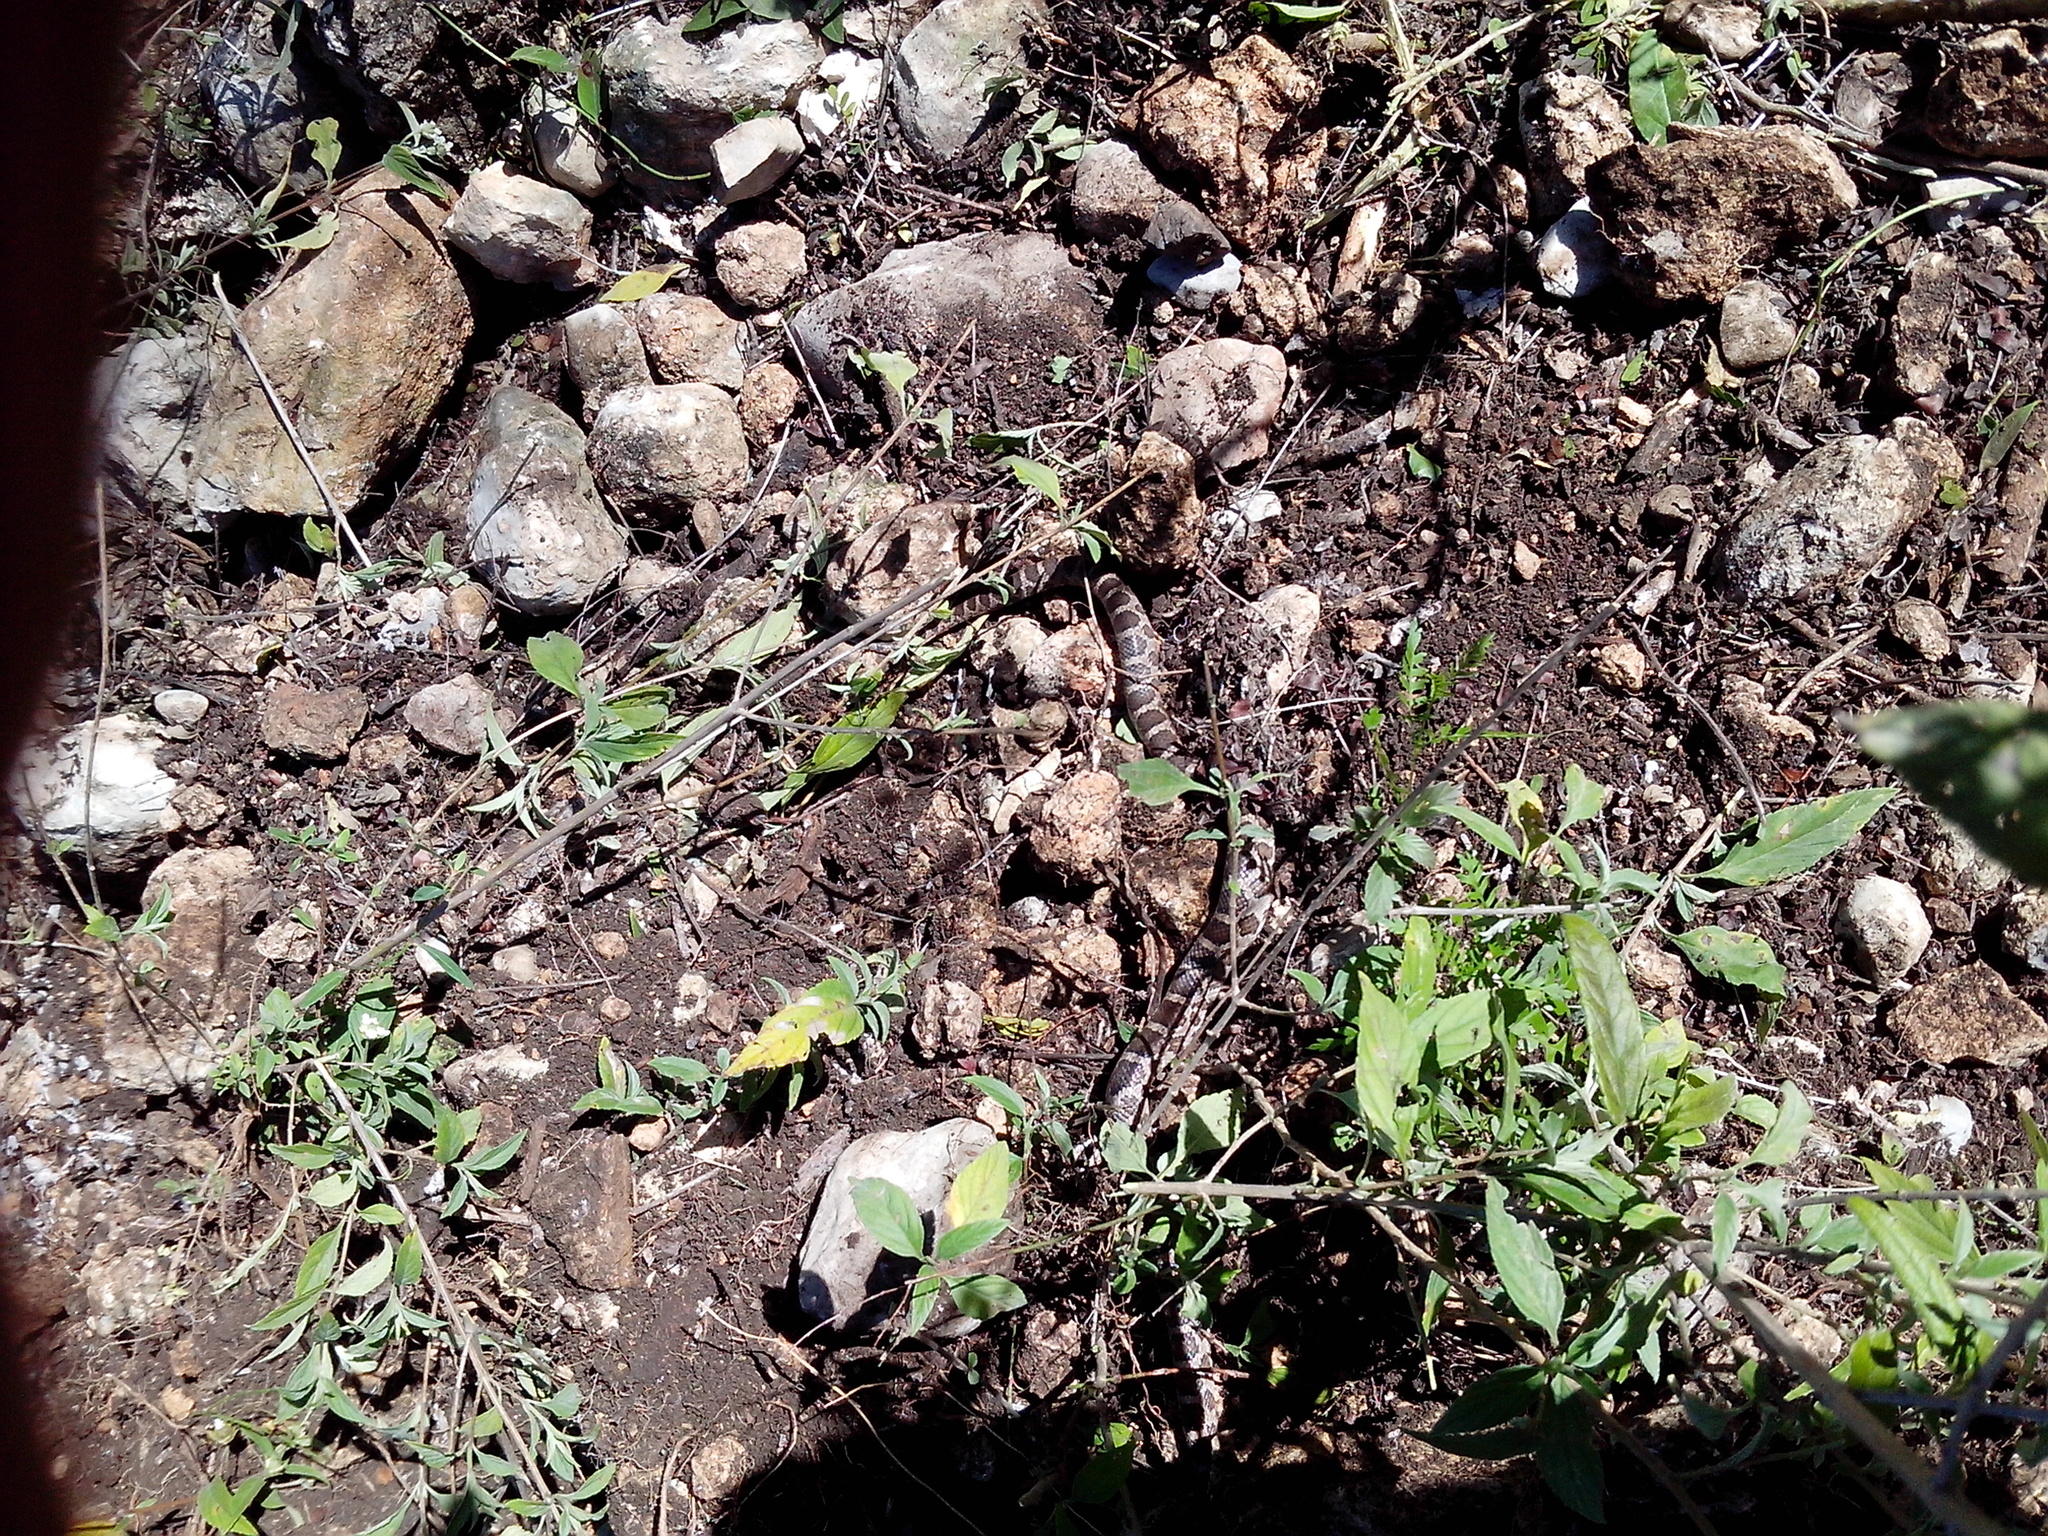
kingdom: Animalia
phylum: Chordata
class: Squamata
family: Colubridae
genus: Pantherophis
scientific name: Pantherophis emoryi
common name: Great plains rat snake
